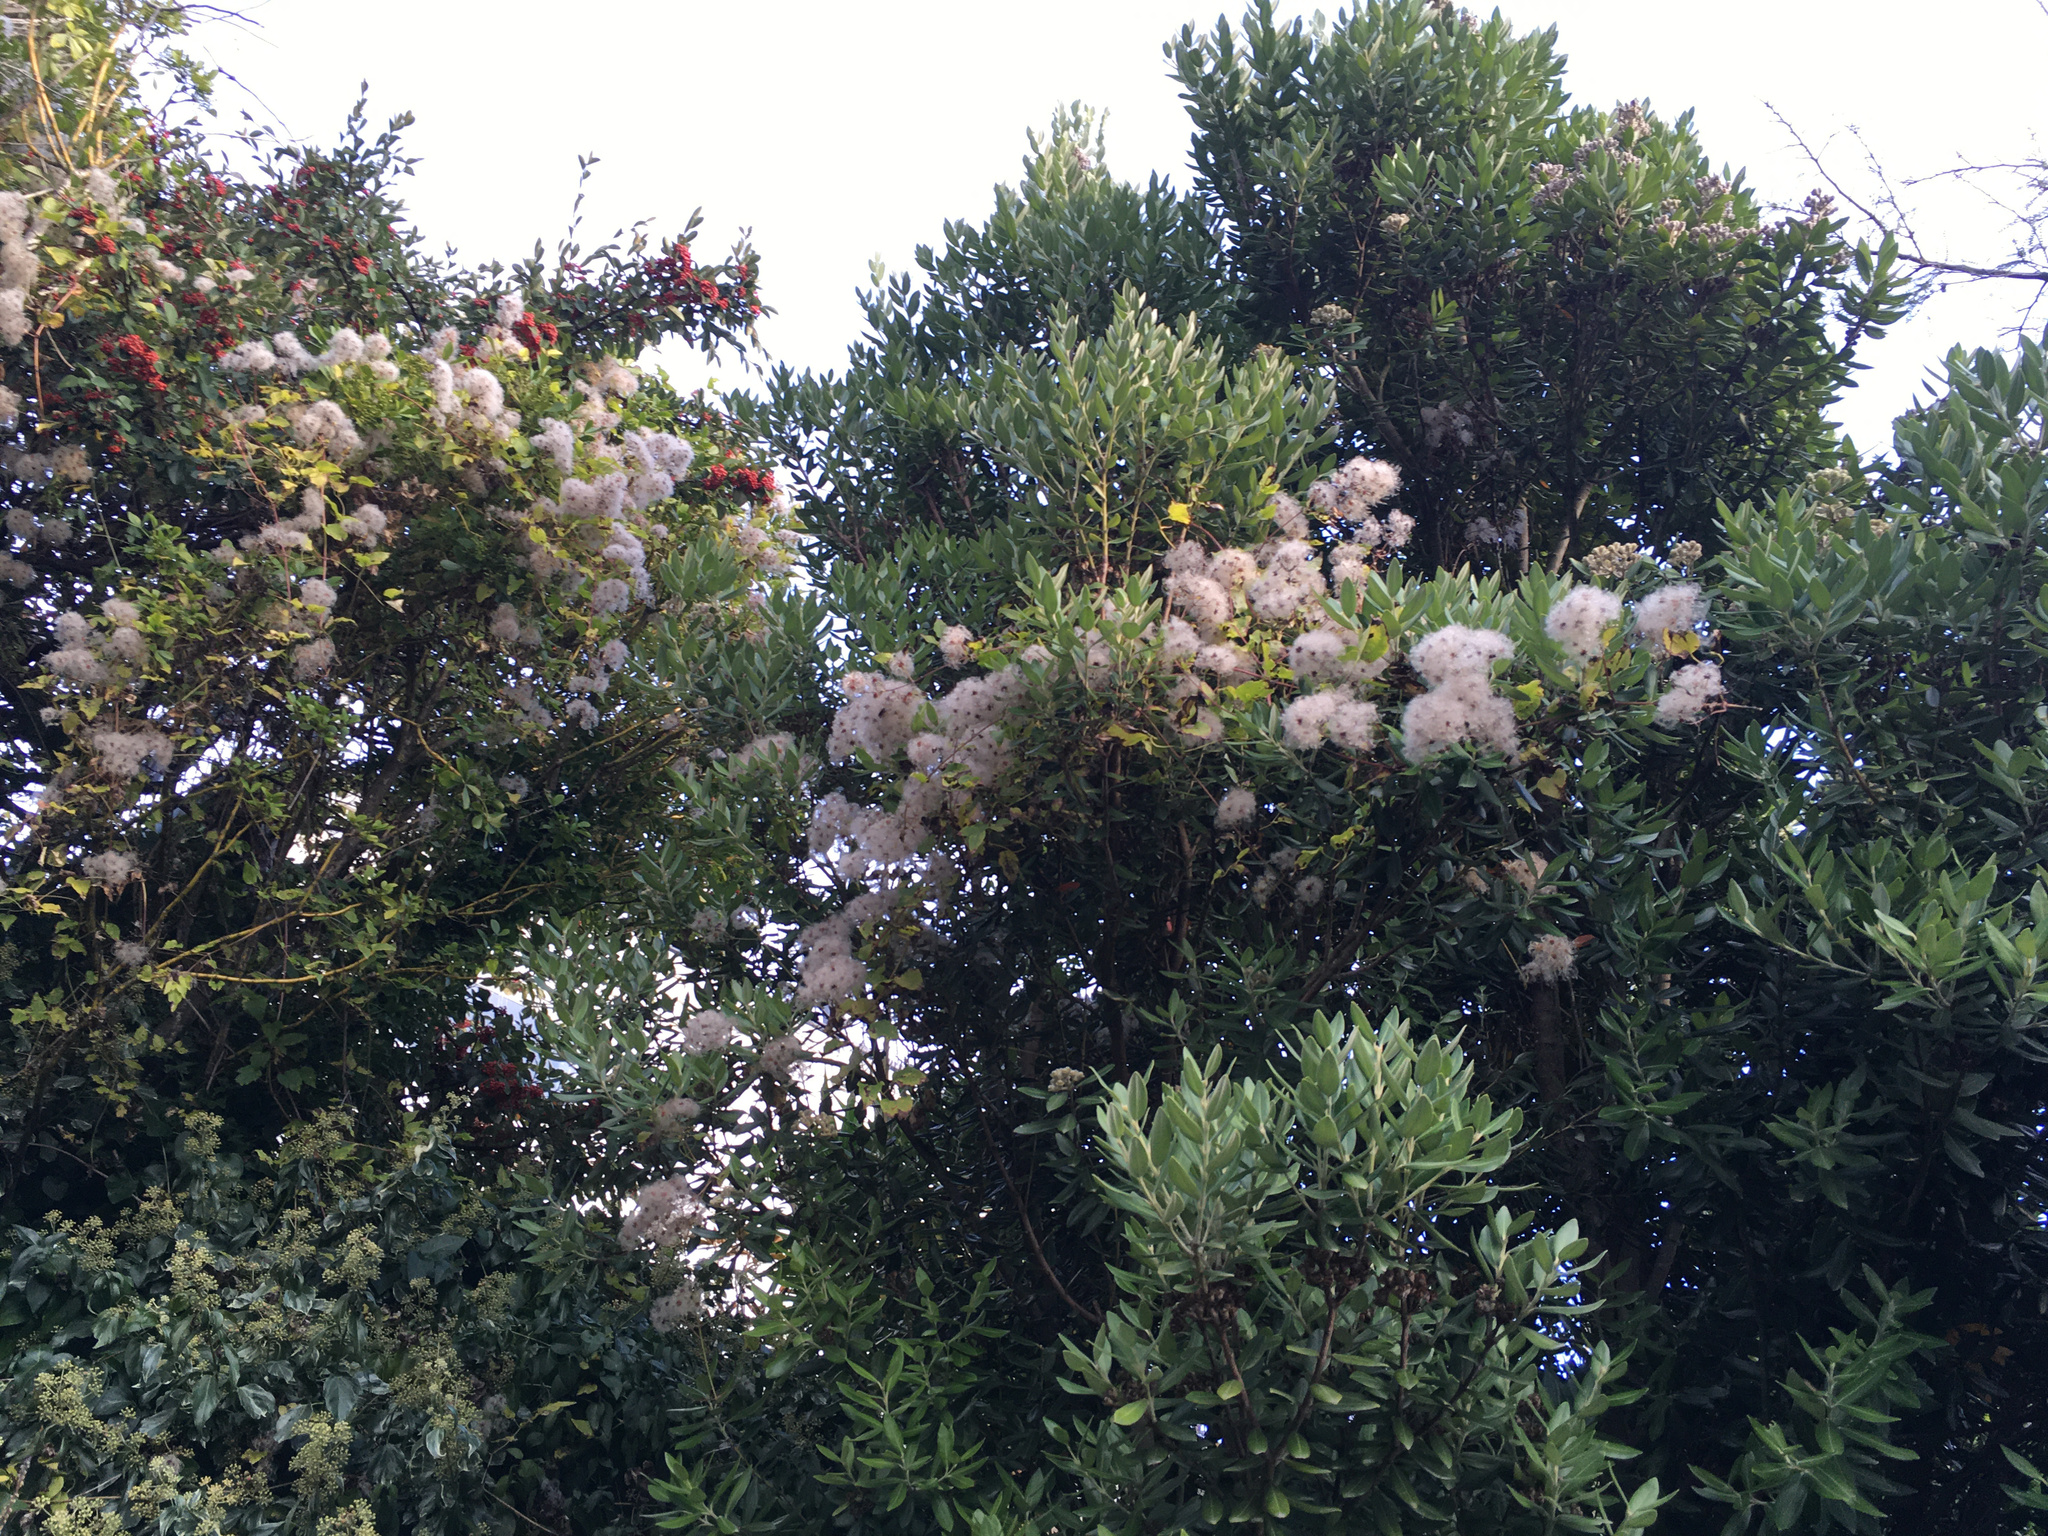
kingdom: Plantae
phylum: Tracheophyta
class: Magnoliopsida
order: Ranunculales
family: Ranunculaceae
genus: Clematis
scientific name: Clematis vitalba
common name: Evergreen clematis
